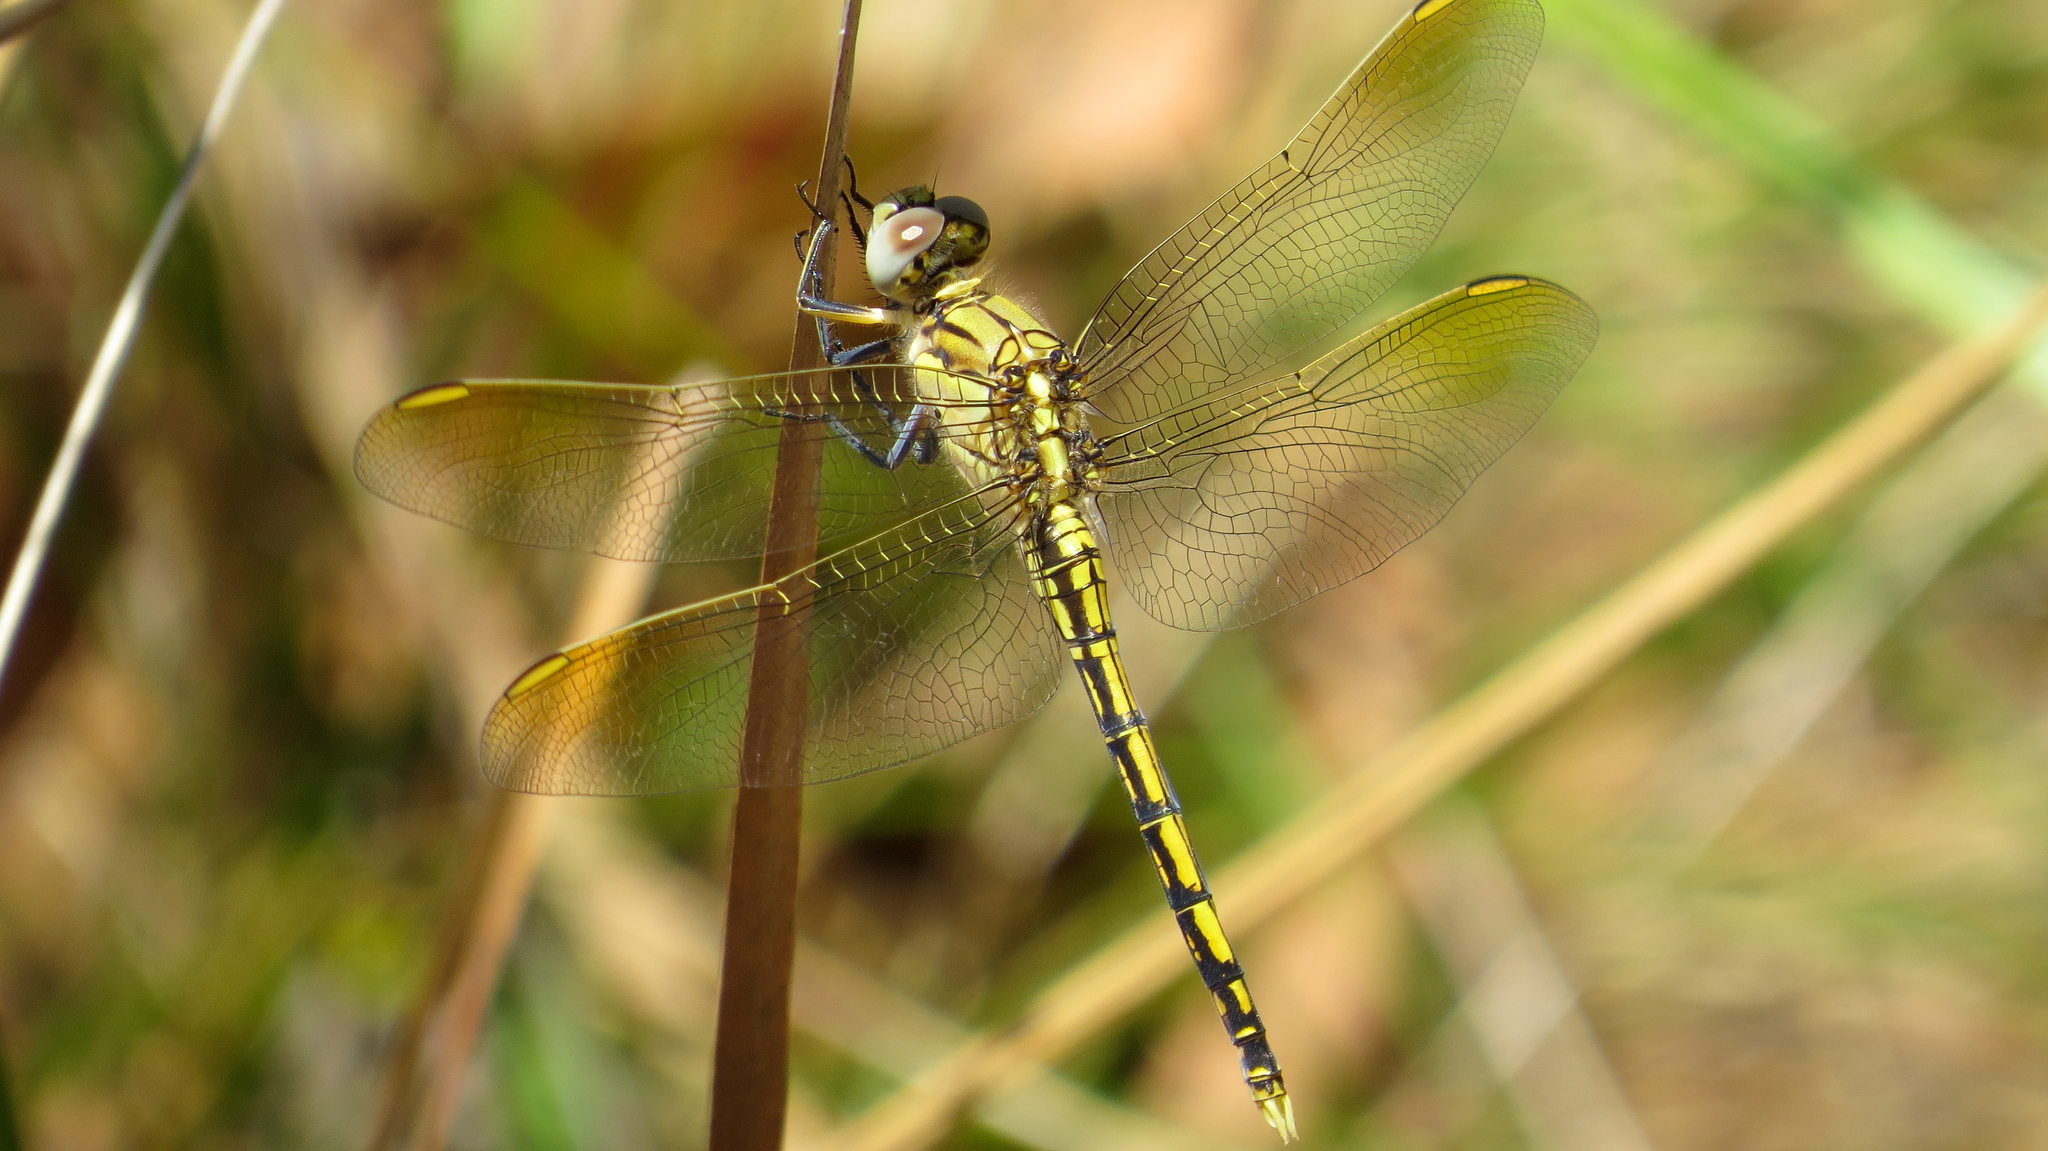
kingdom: Animalia
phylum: Arthropoda
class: Insecta
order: Odonata
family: Libellulidae
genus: Orthetrum
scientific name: Orthetrum caledonicum
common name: Blue skimmer
